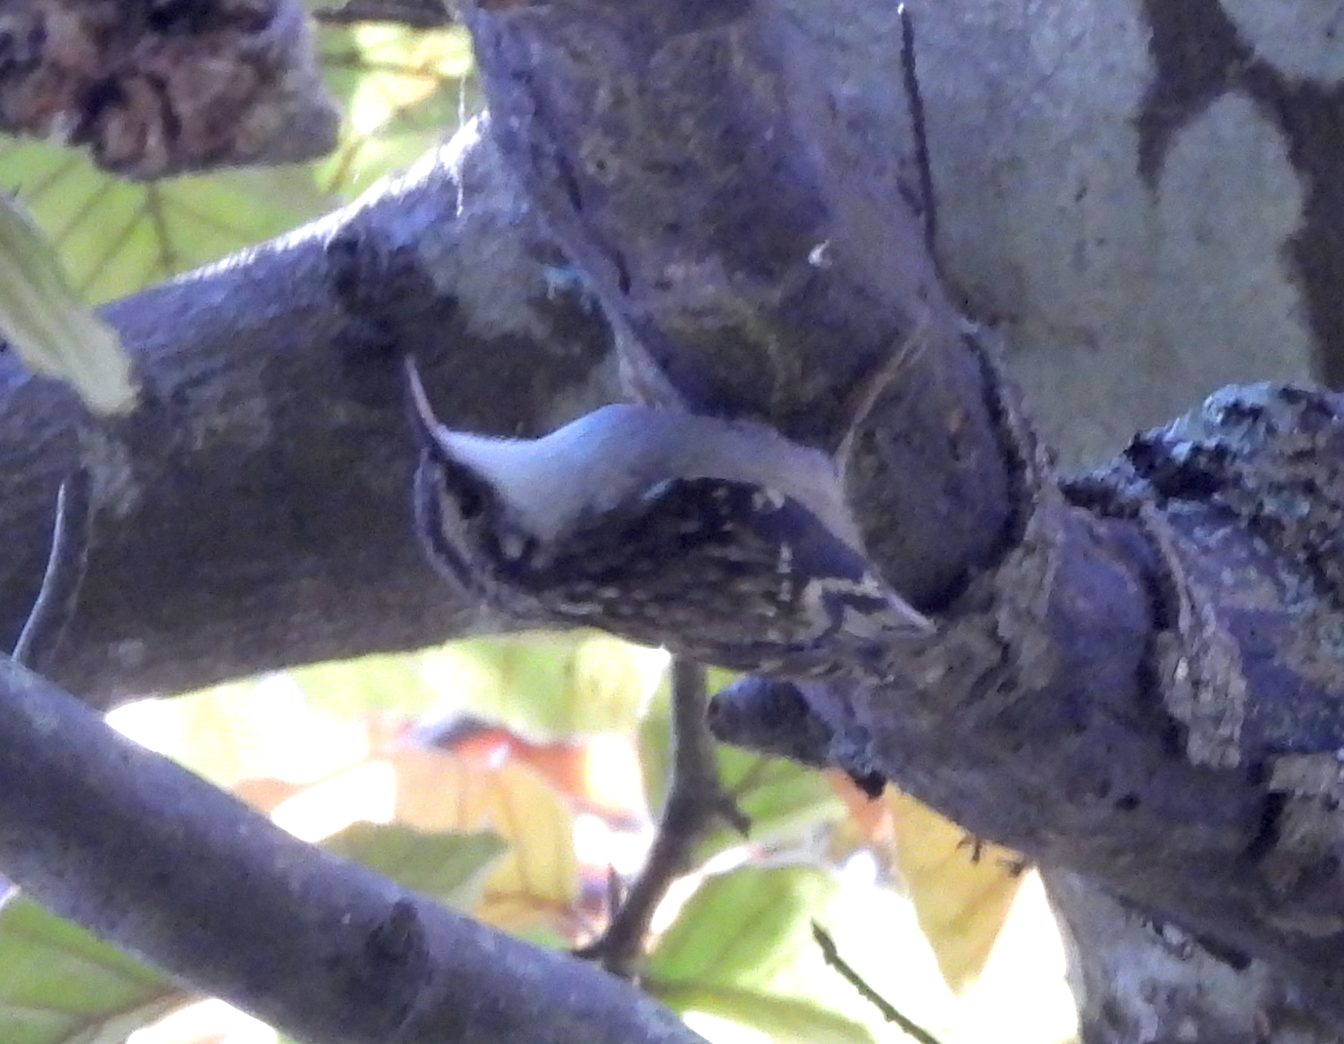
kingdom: Animalia
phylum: Chordata
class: Aves
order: Passeriformes
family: Certhiidae
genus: Certhia
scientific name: Certhia americana
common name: Brown creeper
